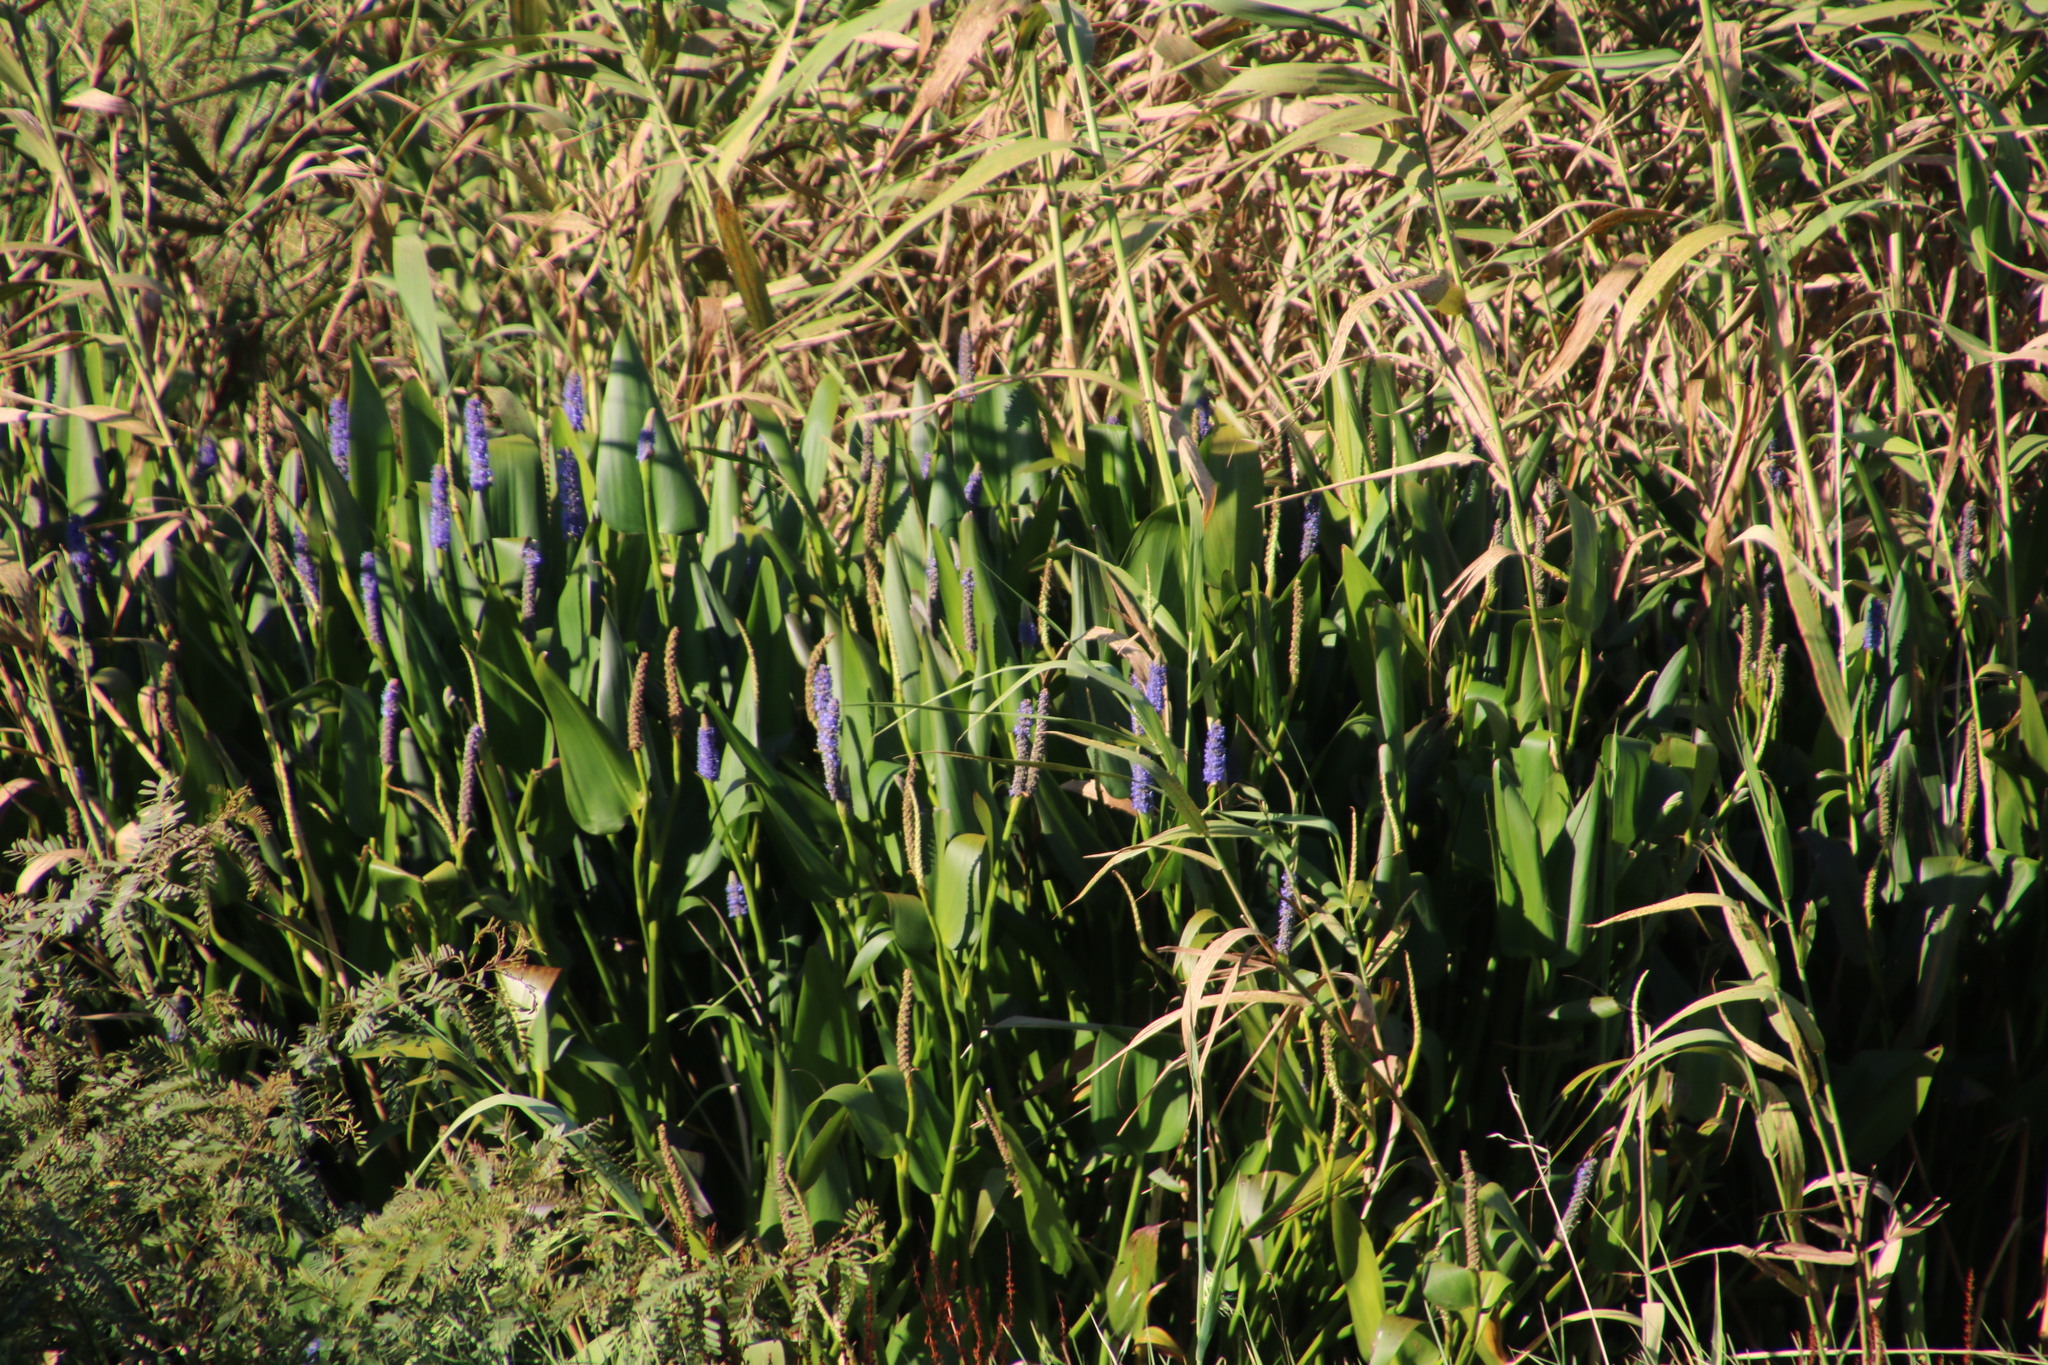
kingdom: Plantae
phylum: Tracheophyta
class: Liliopsida
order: Commelinales
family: Pontederiaceae
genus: Pontederia
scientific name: Pontederia cordata
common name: Pickerelweed
